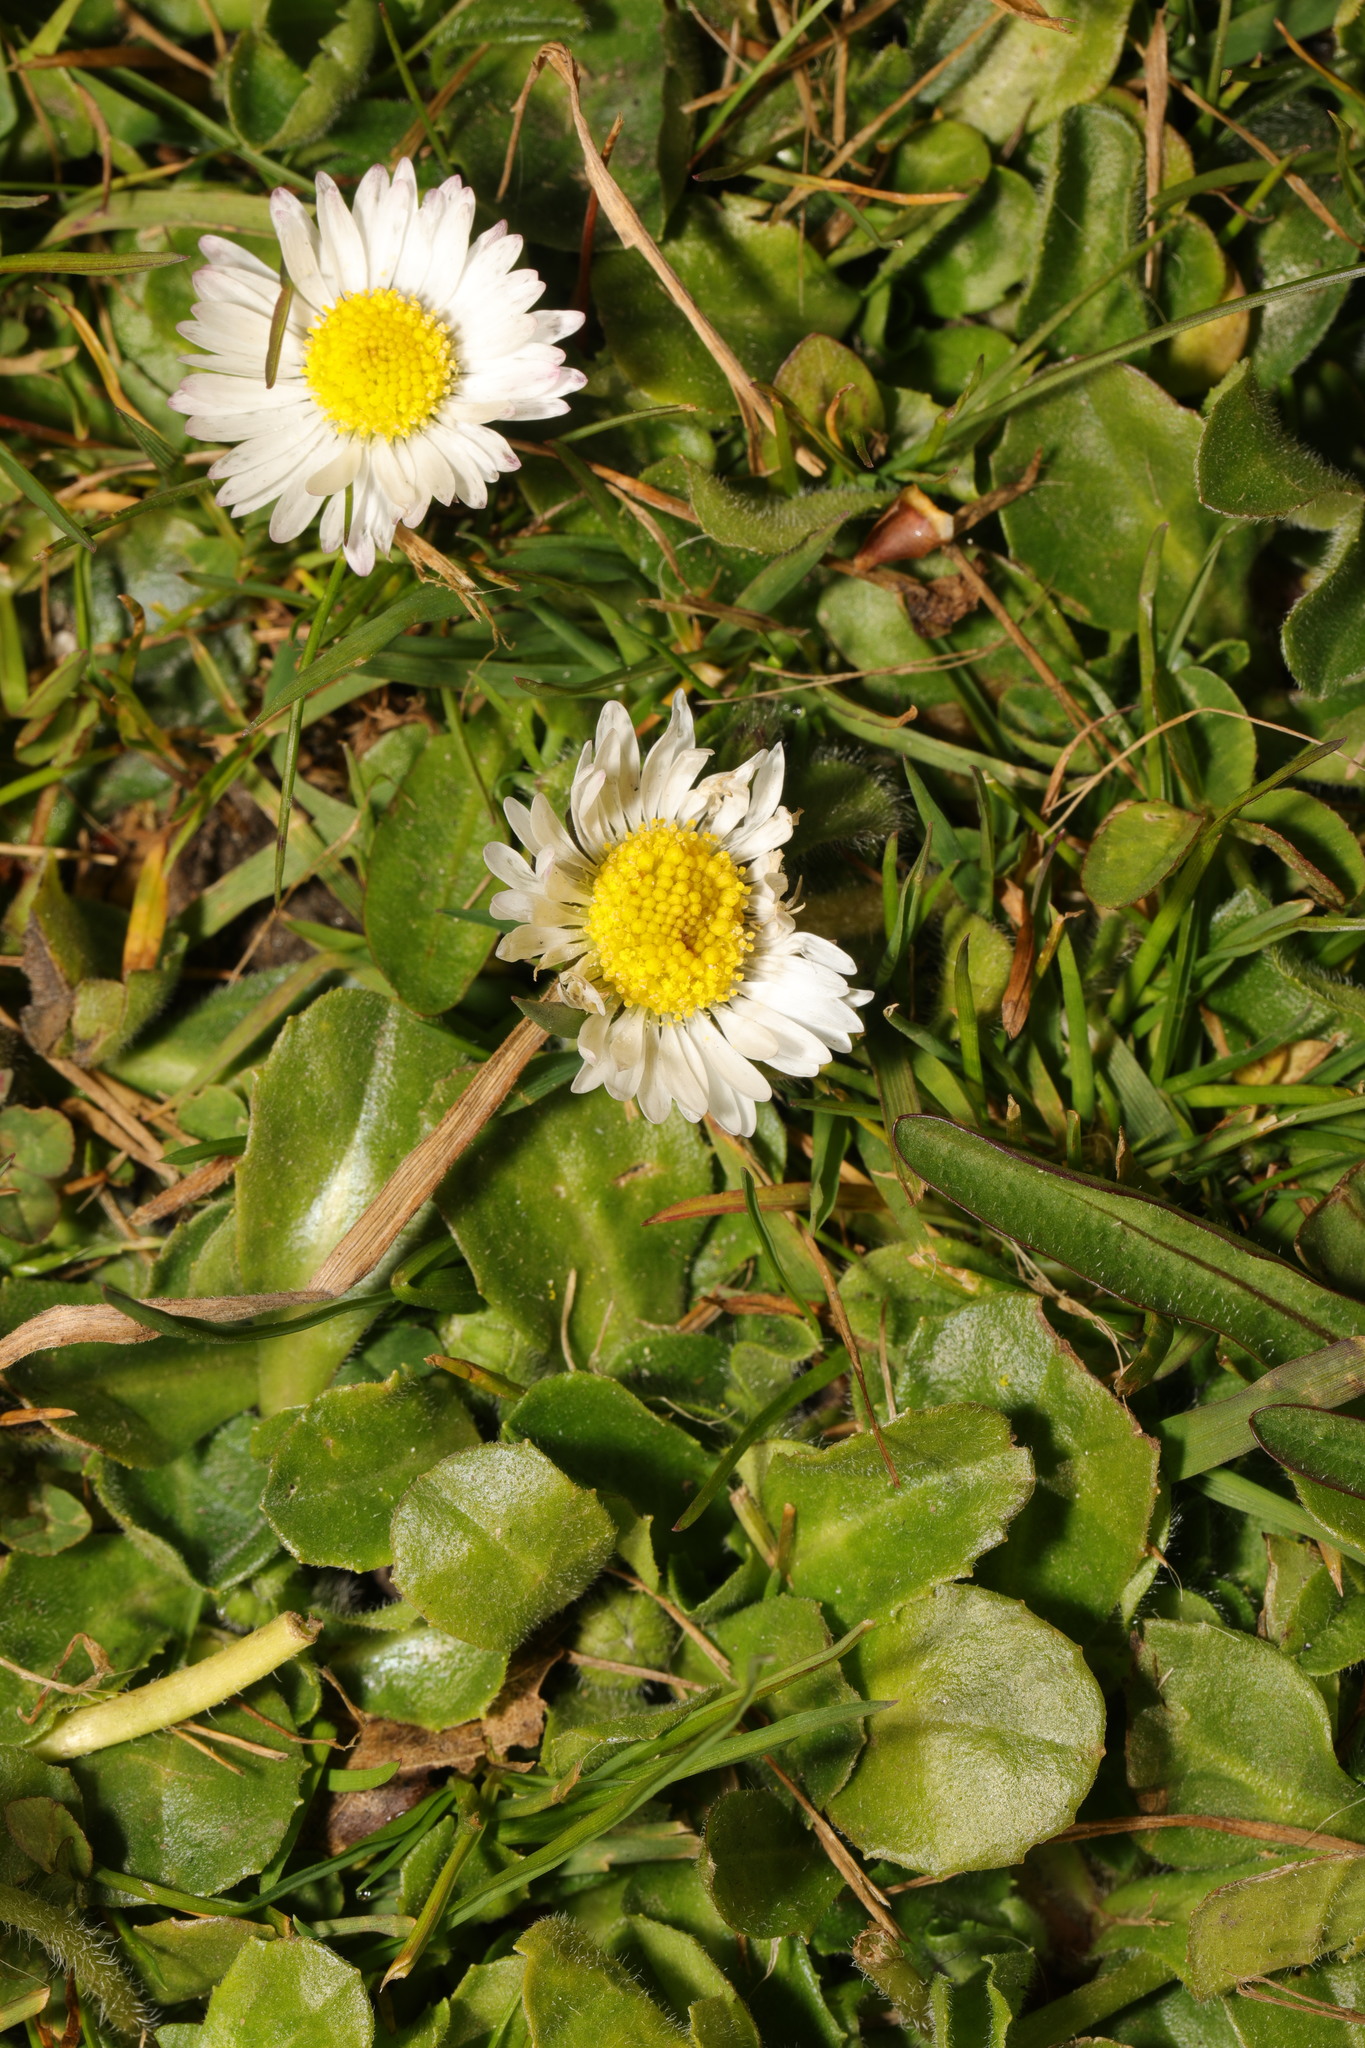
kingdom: Plantae
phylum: Tracheophyta
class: Magnoliopsida
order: Asterales
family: Asteraceae
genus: Bellis
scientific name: Bellis perennis
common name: Lawndaisy
